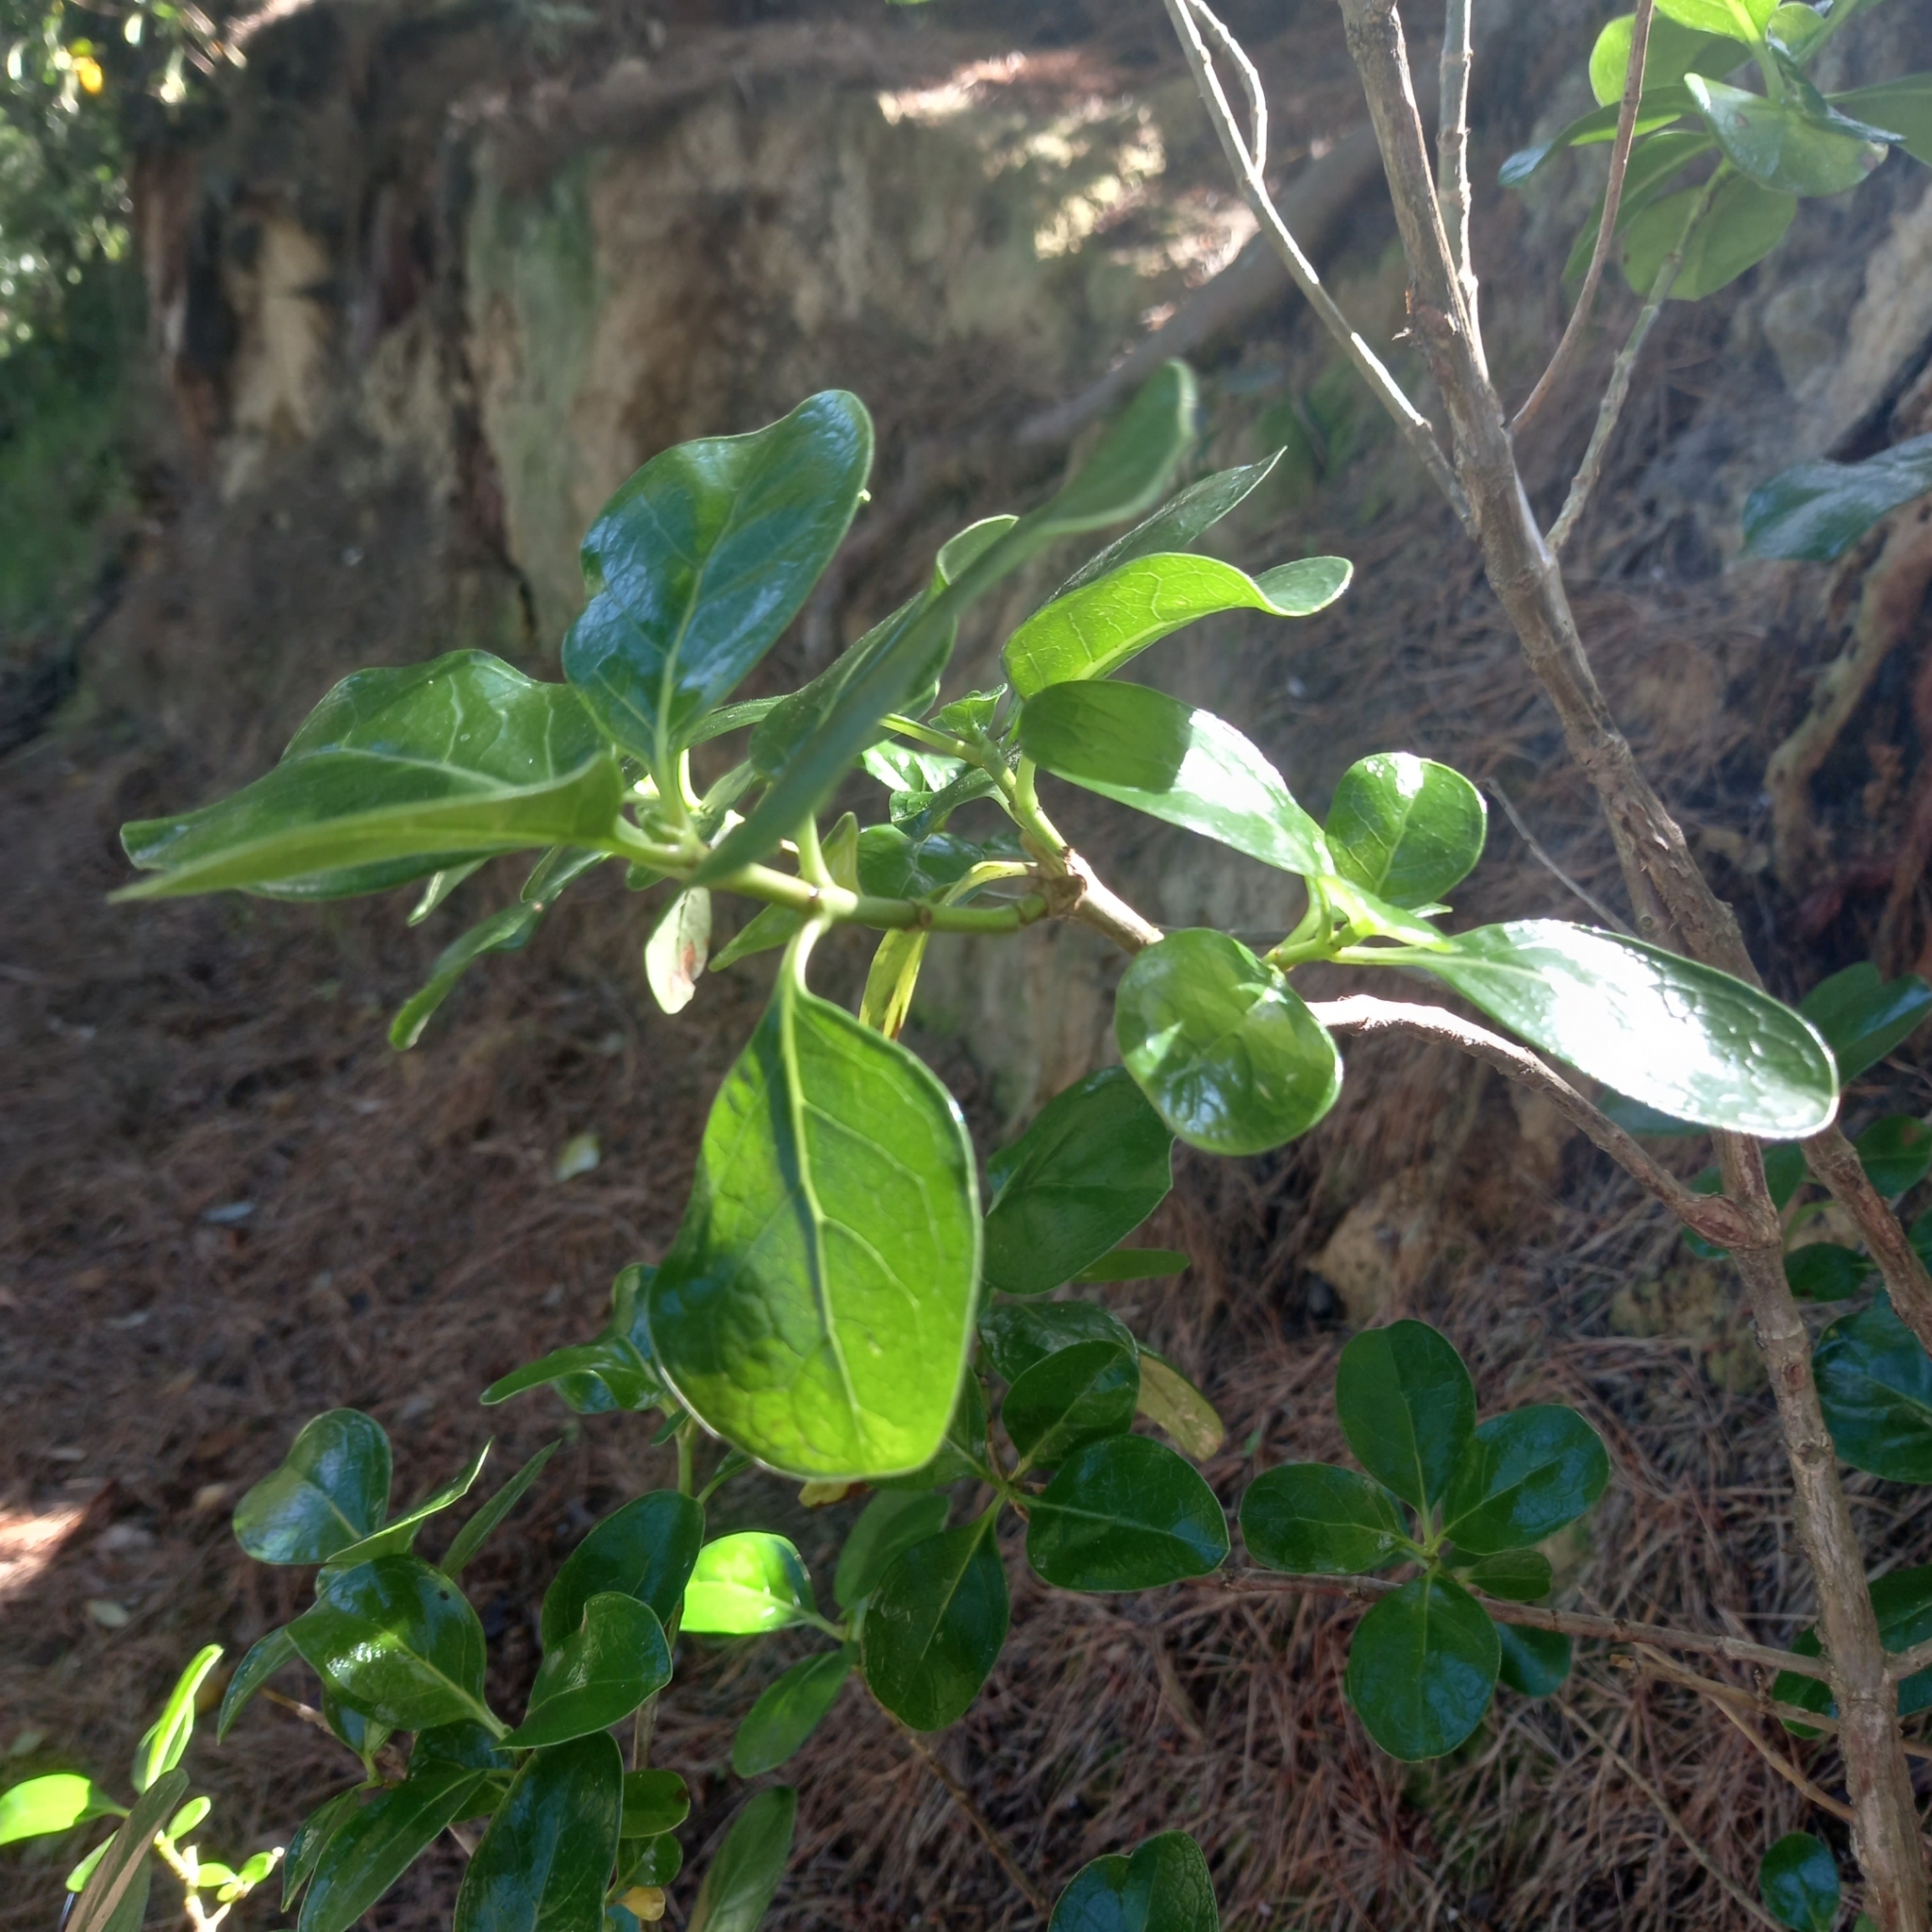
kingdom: Plantae
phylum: Tracheophyta
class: Magnoliopsida
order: Gentianales
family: Rubiaceae
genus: Coprosma
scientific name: Coprosma repens
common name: Tree bedstraw
